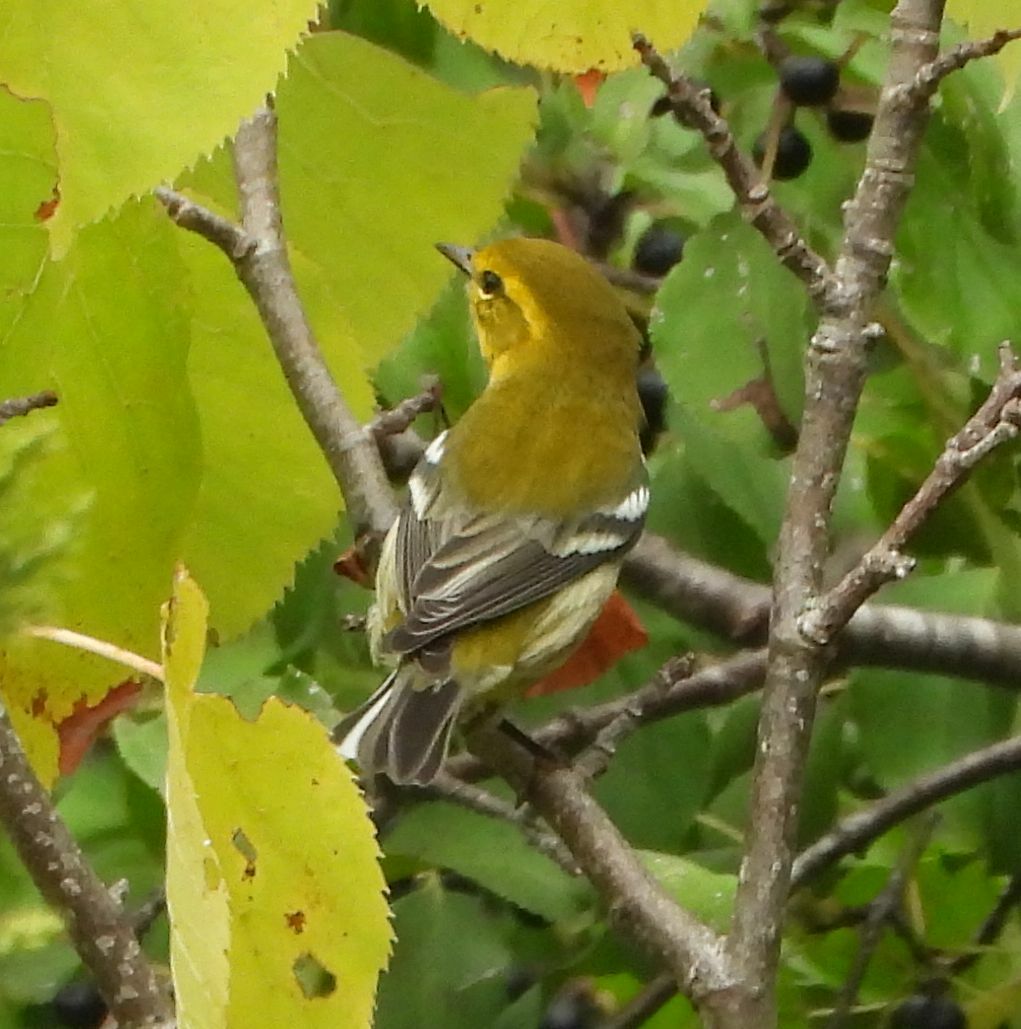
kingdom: Animalia
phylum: Chordata
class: Aves
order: Passeriformes
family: Parulidae
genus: Setophaga
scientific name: Setophaga virens
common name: Black-throated green warbler
